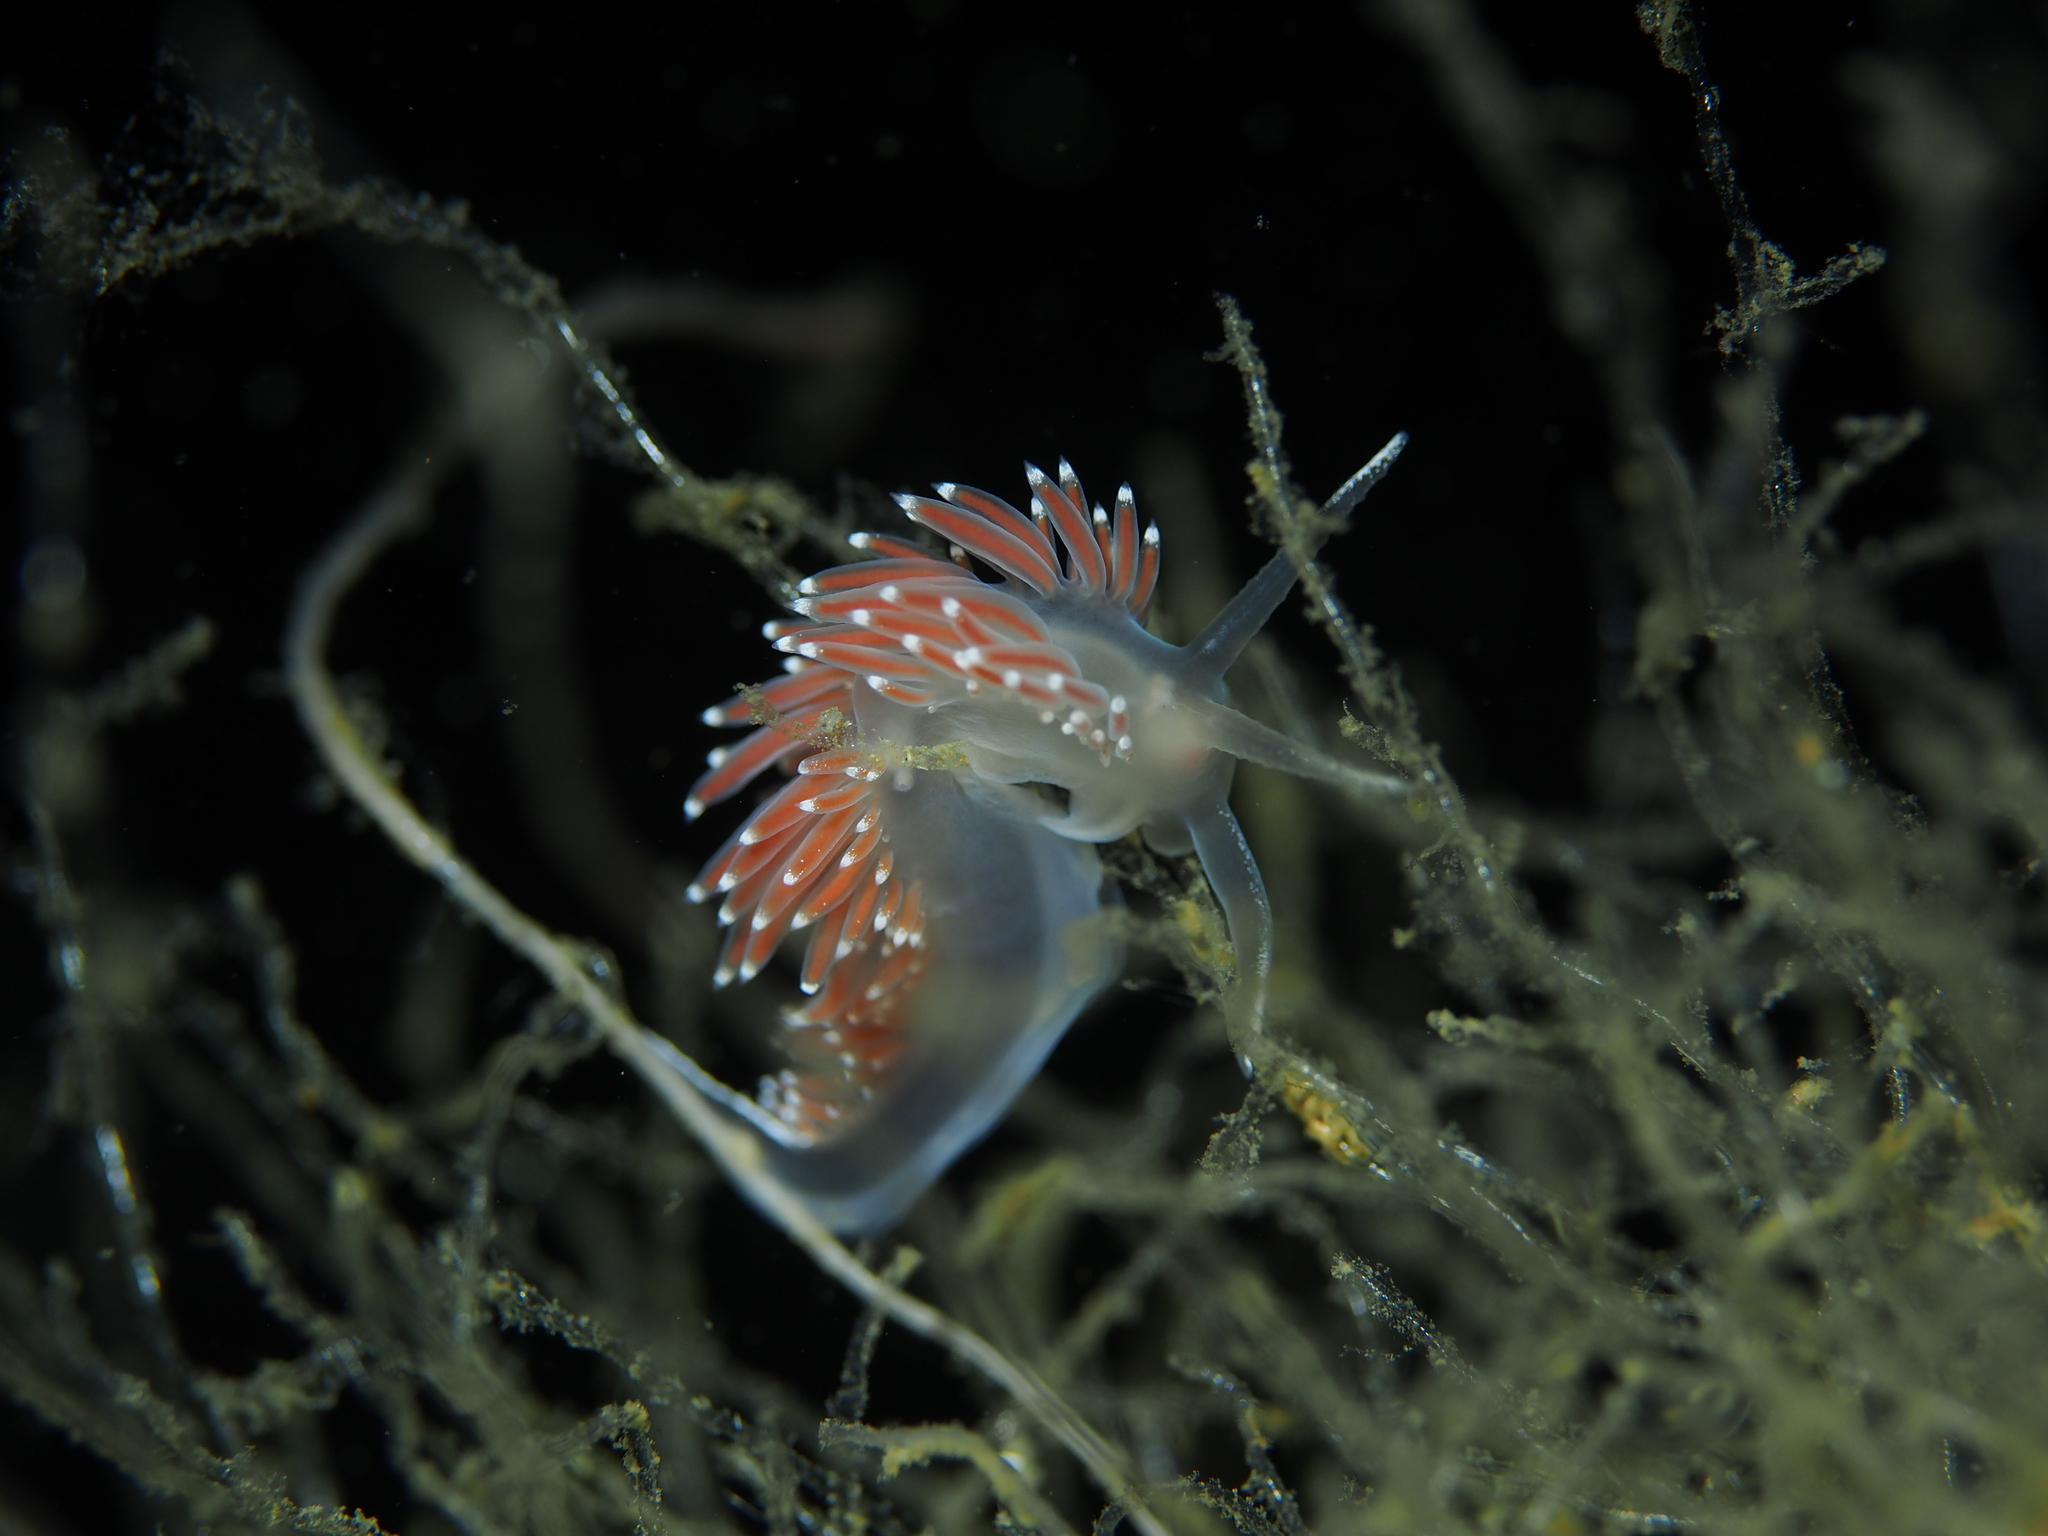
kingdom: Animalia
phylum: Mollusca
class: Gastropoda
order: Nudibranchia
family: Coryphellidae
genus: Coryphella
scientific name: Coryphella verrucosa
